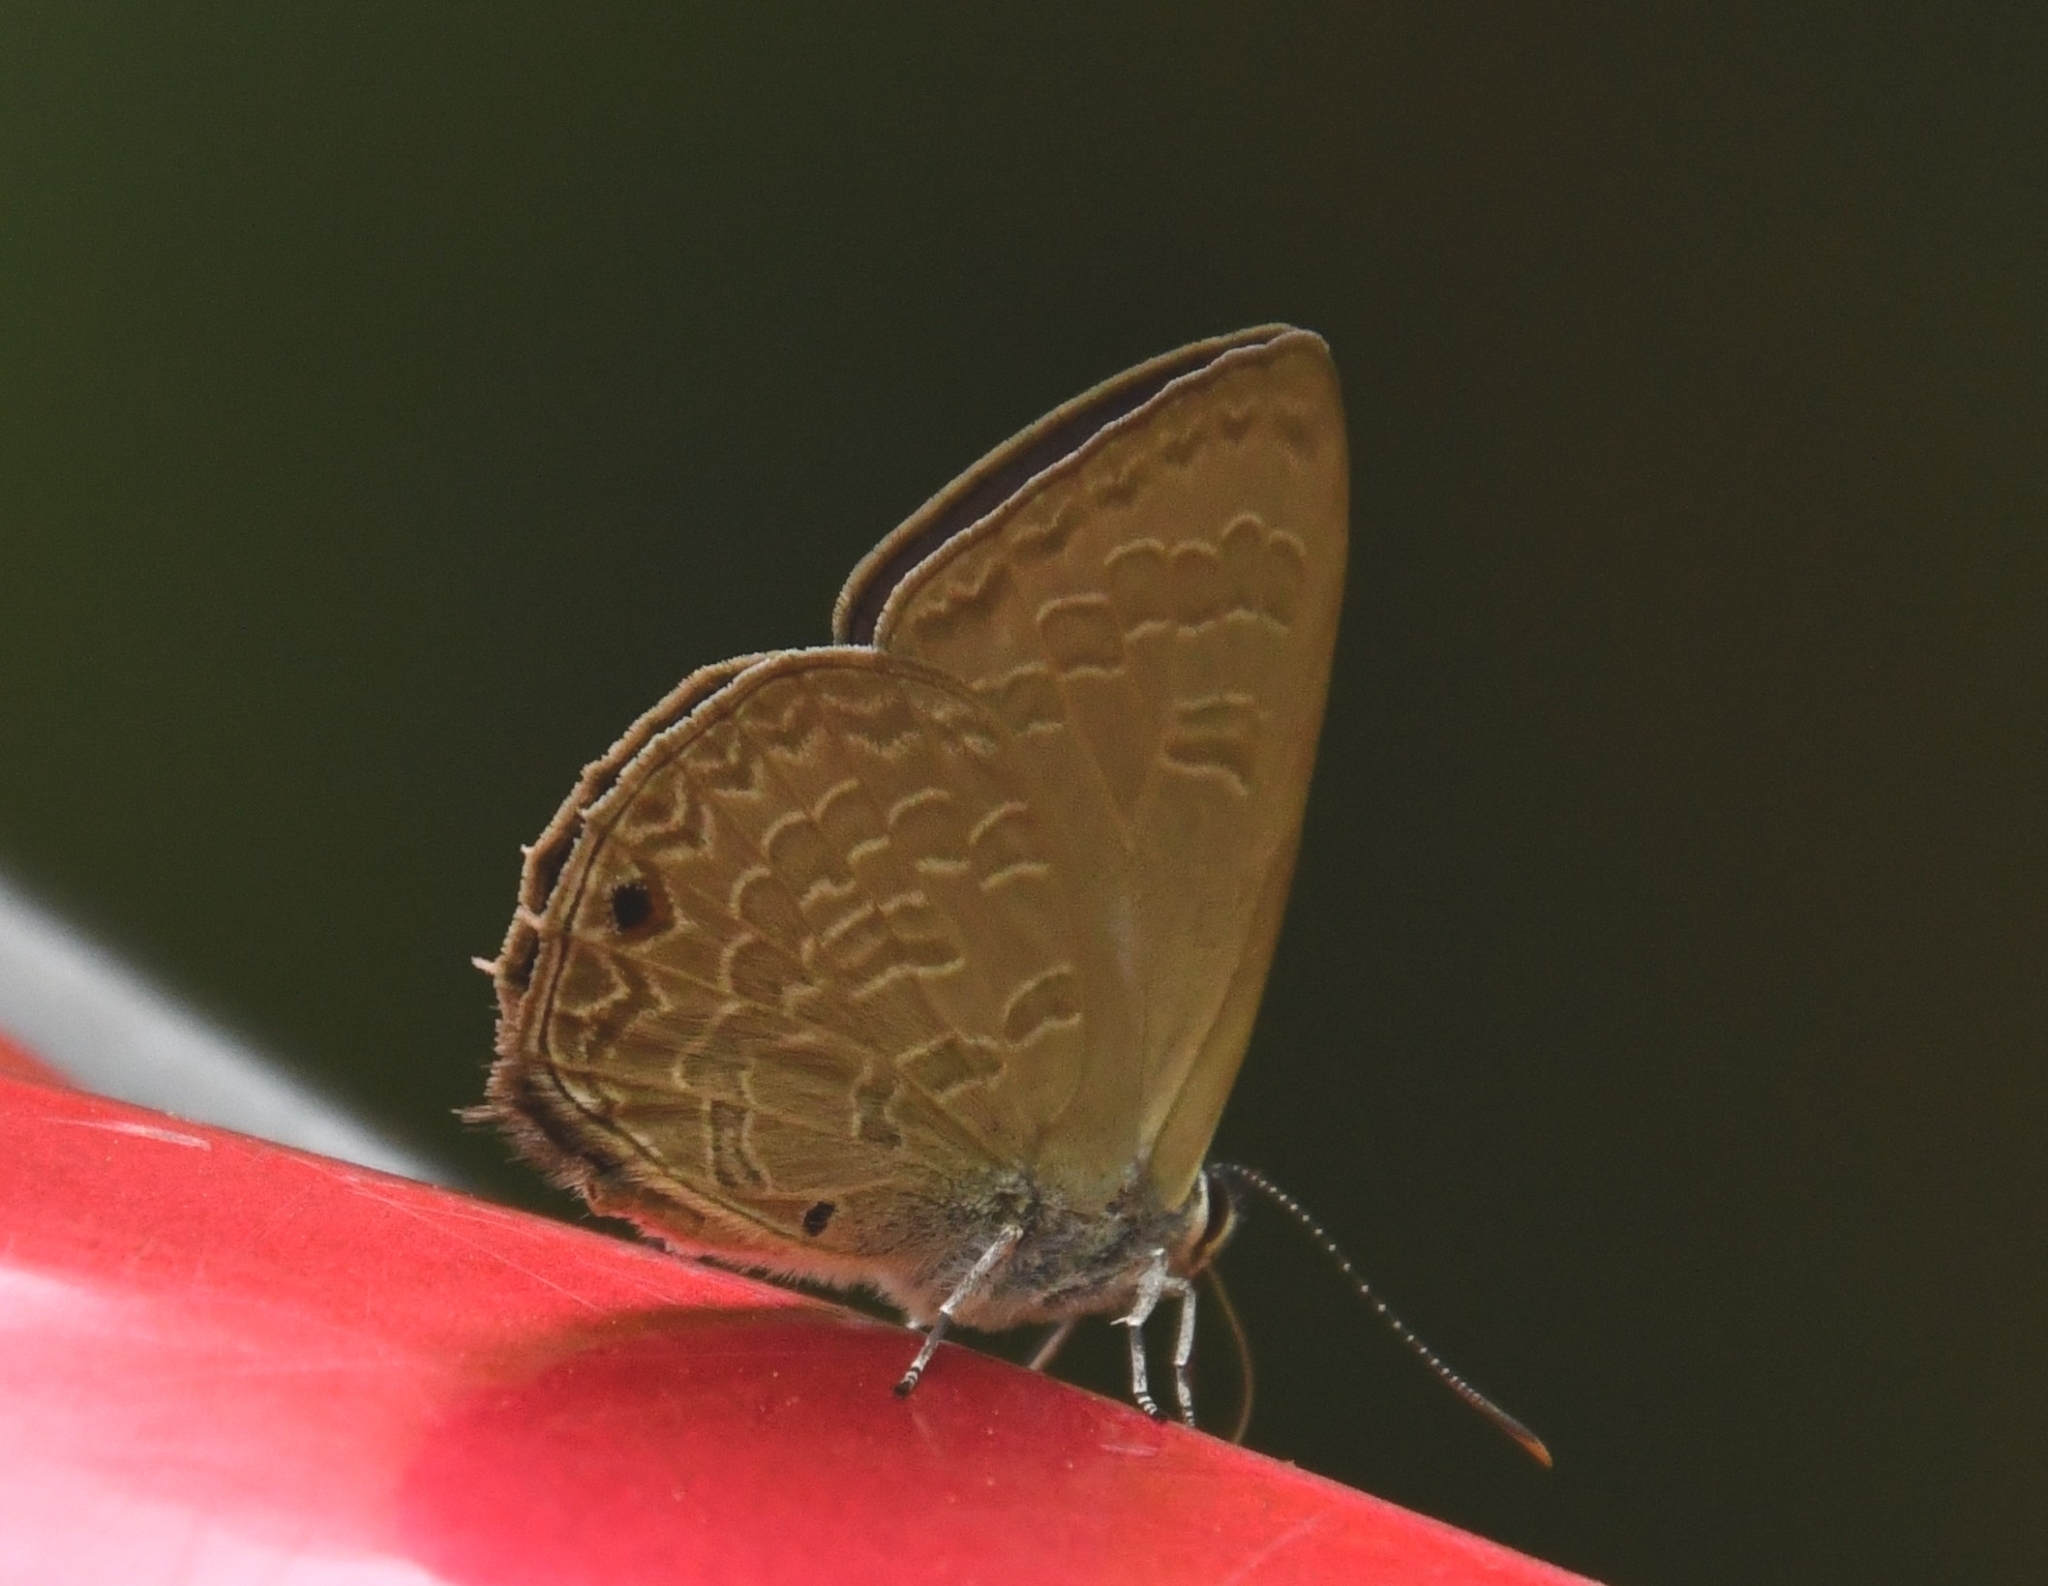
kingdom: Animalia
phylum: Arthropoda
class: Insecta
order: Lepidoptera
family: Lycaenidae
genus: Anthene
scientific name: Anthene emolus
